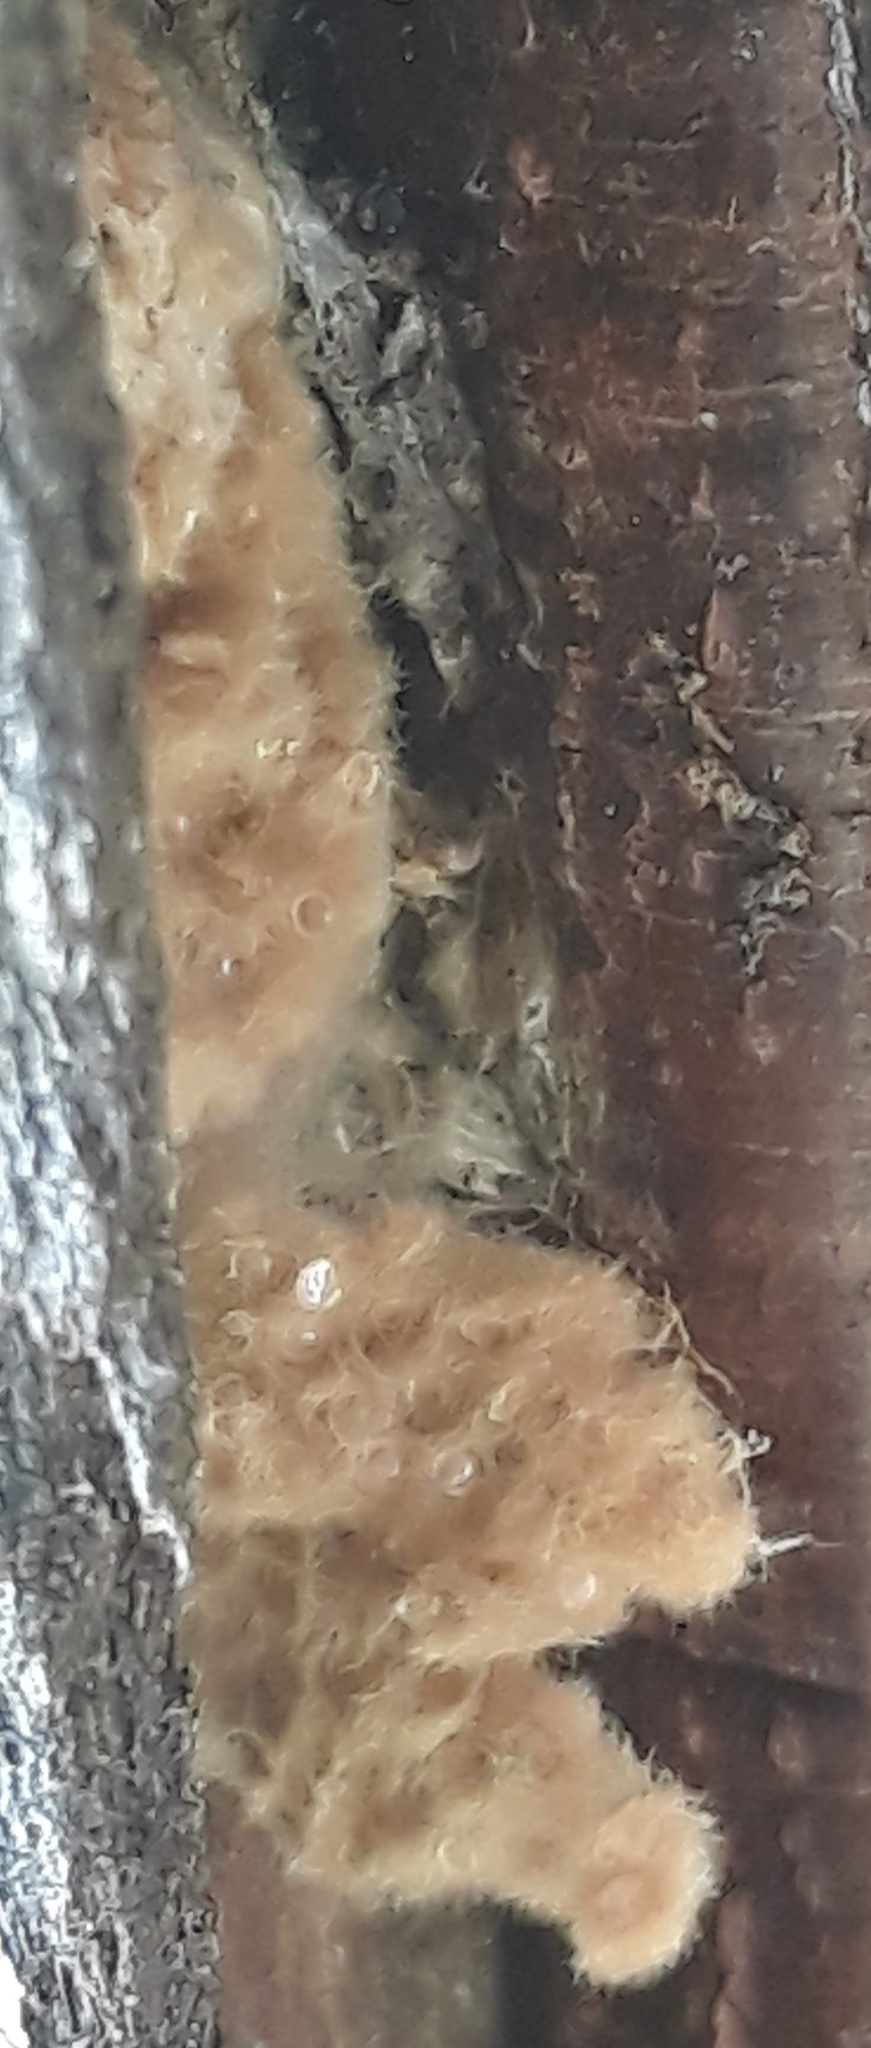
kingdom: Animalia
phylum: Arthropoda
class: Insecta
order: Lepidoptera
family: Erebidae
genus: Lymantria
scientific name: Lymantria dispar
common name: Gypsy moth
